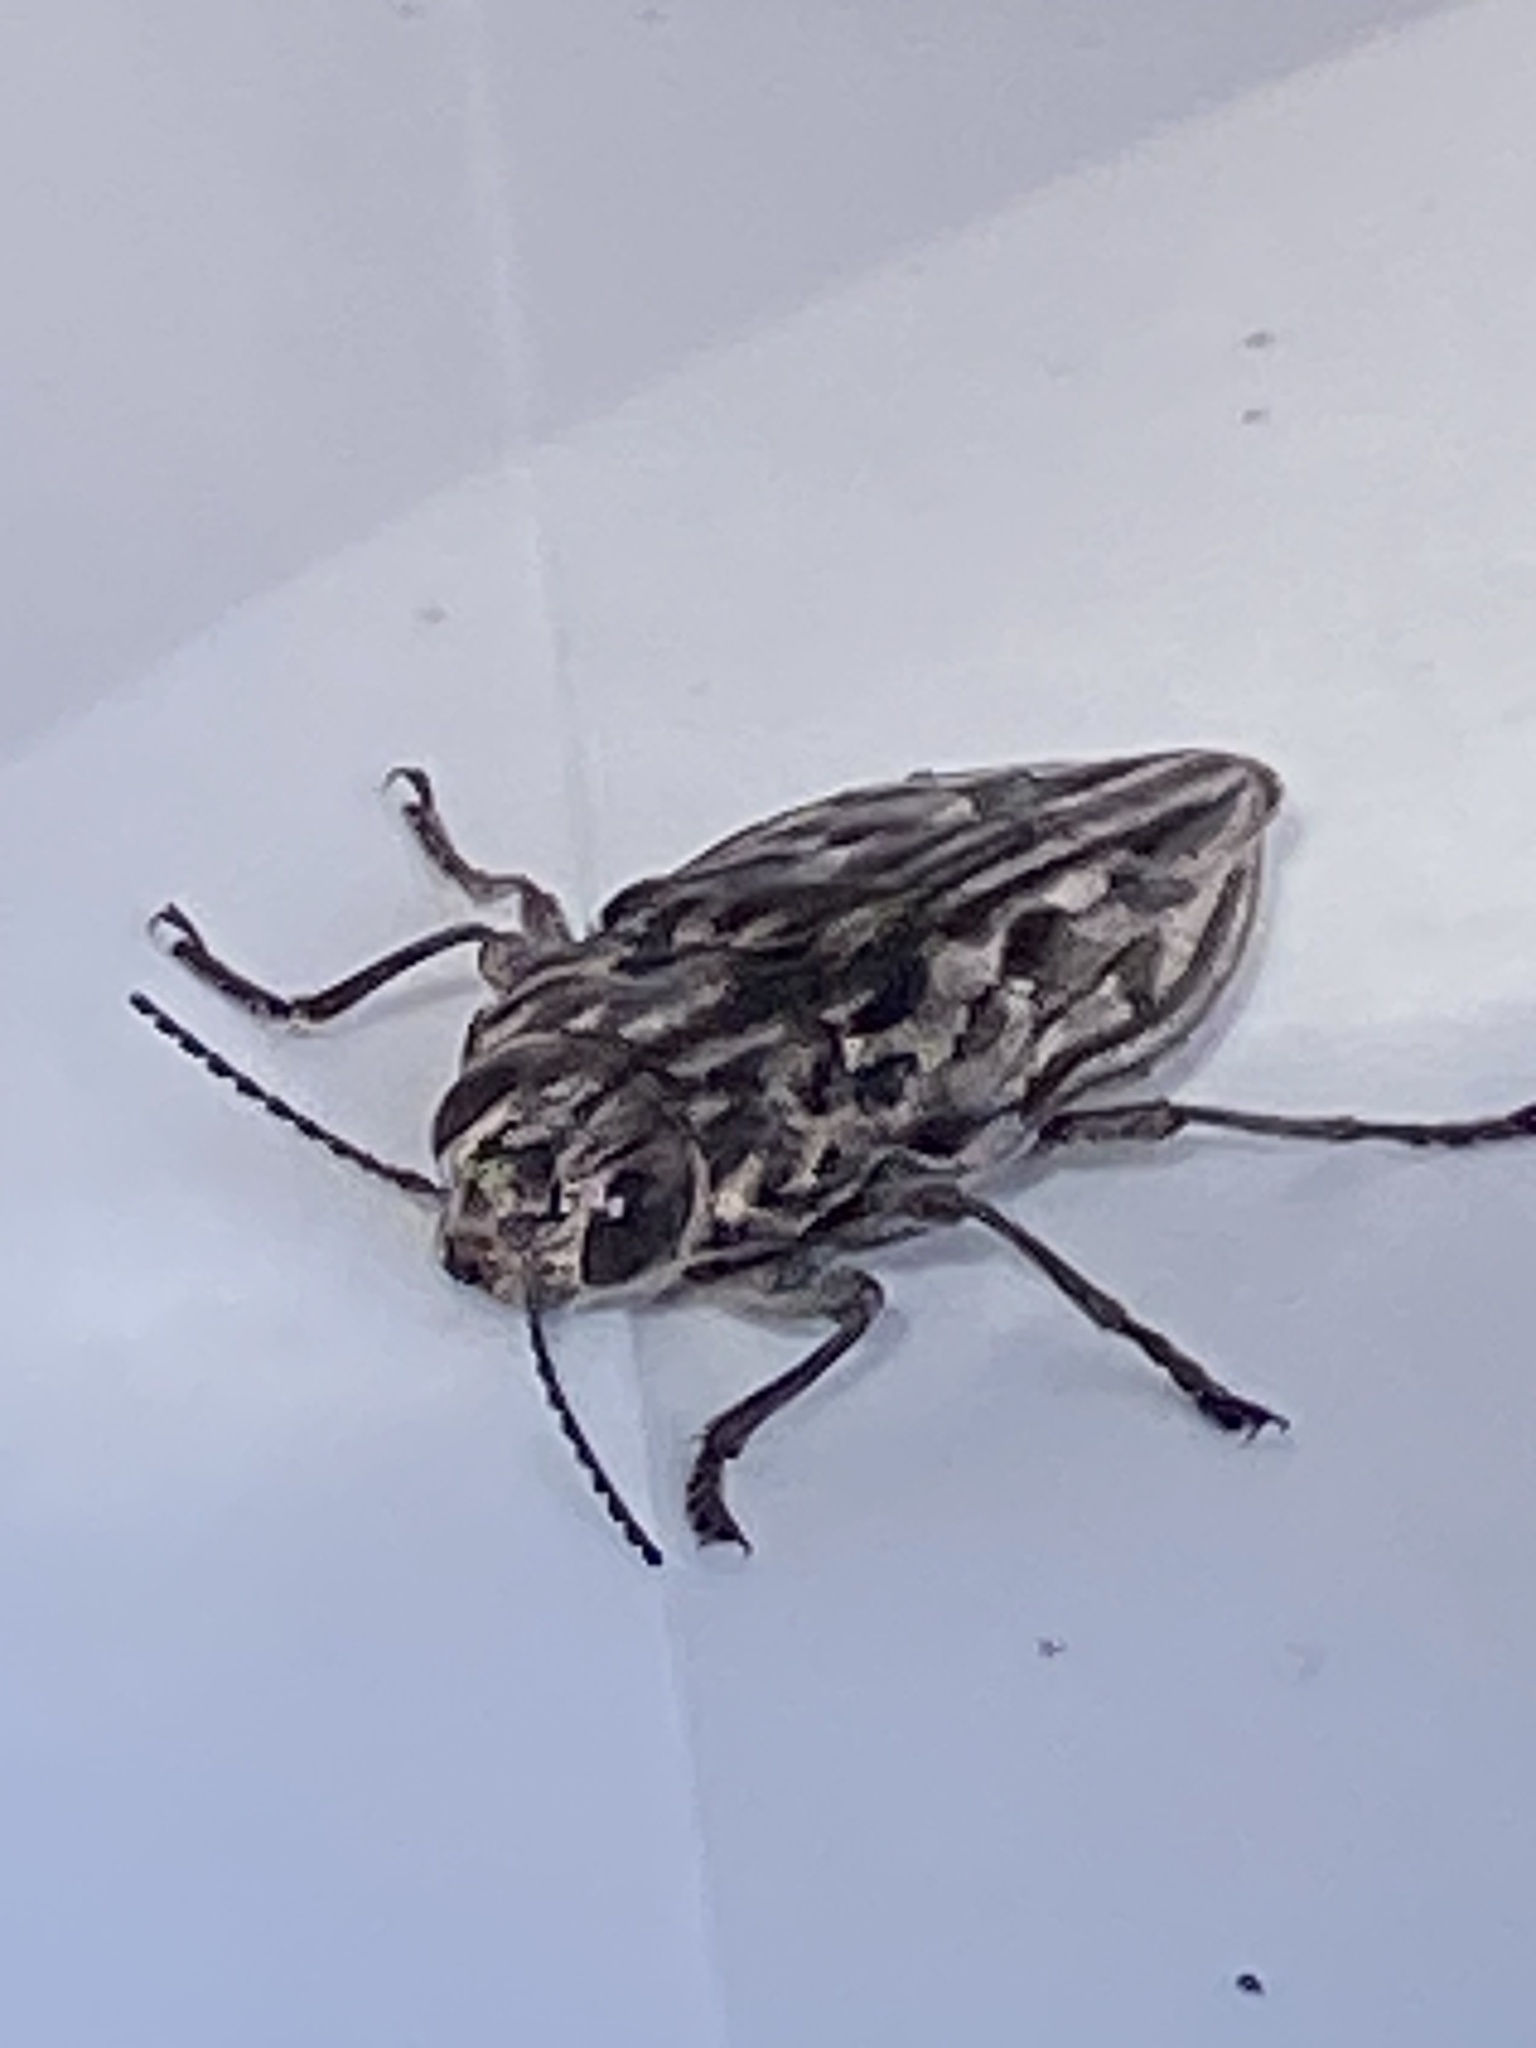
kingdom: Animalia
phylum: Arthropoda
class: Insecta
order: Coleoptera
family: Buprestidae
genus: Chalcophora
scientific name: Chalcophora angulicollis
